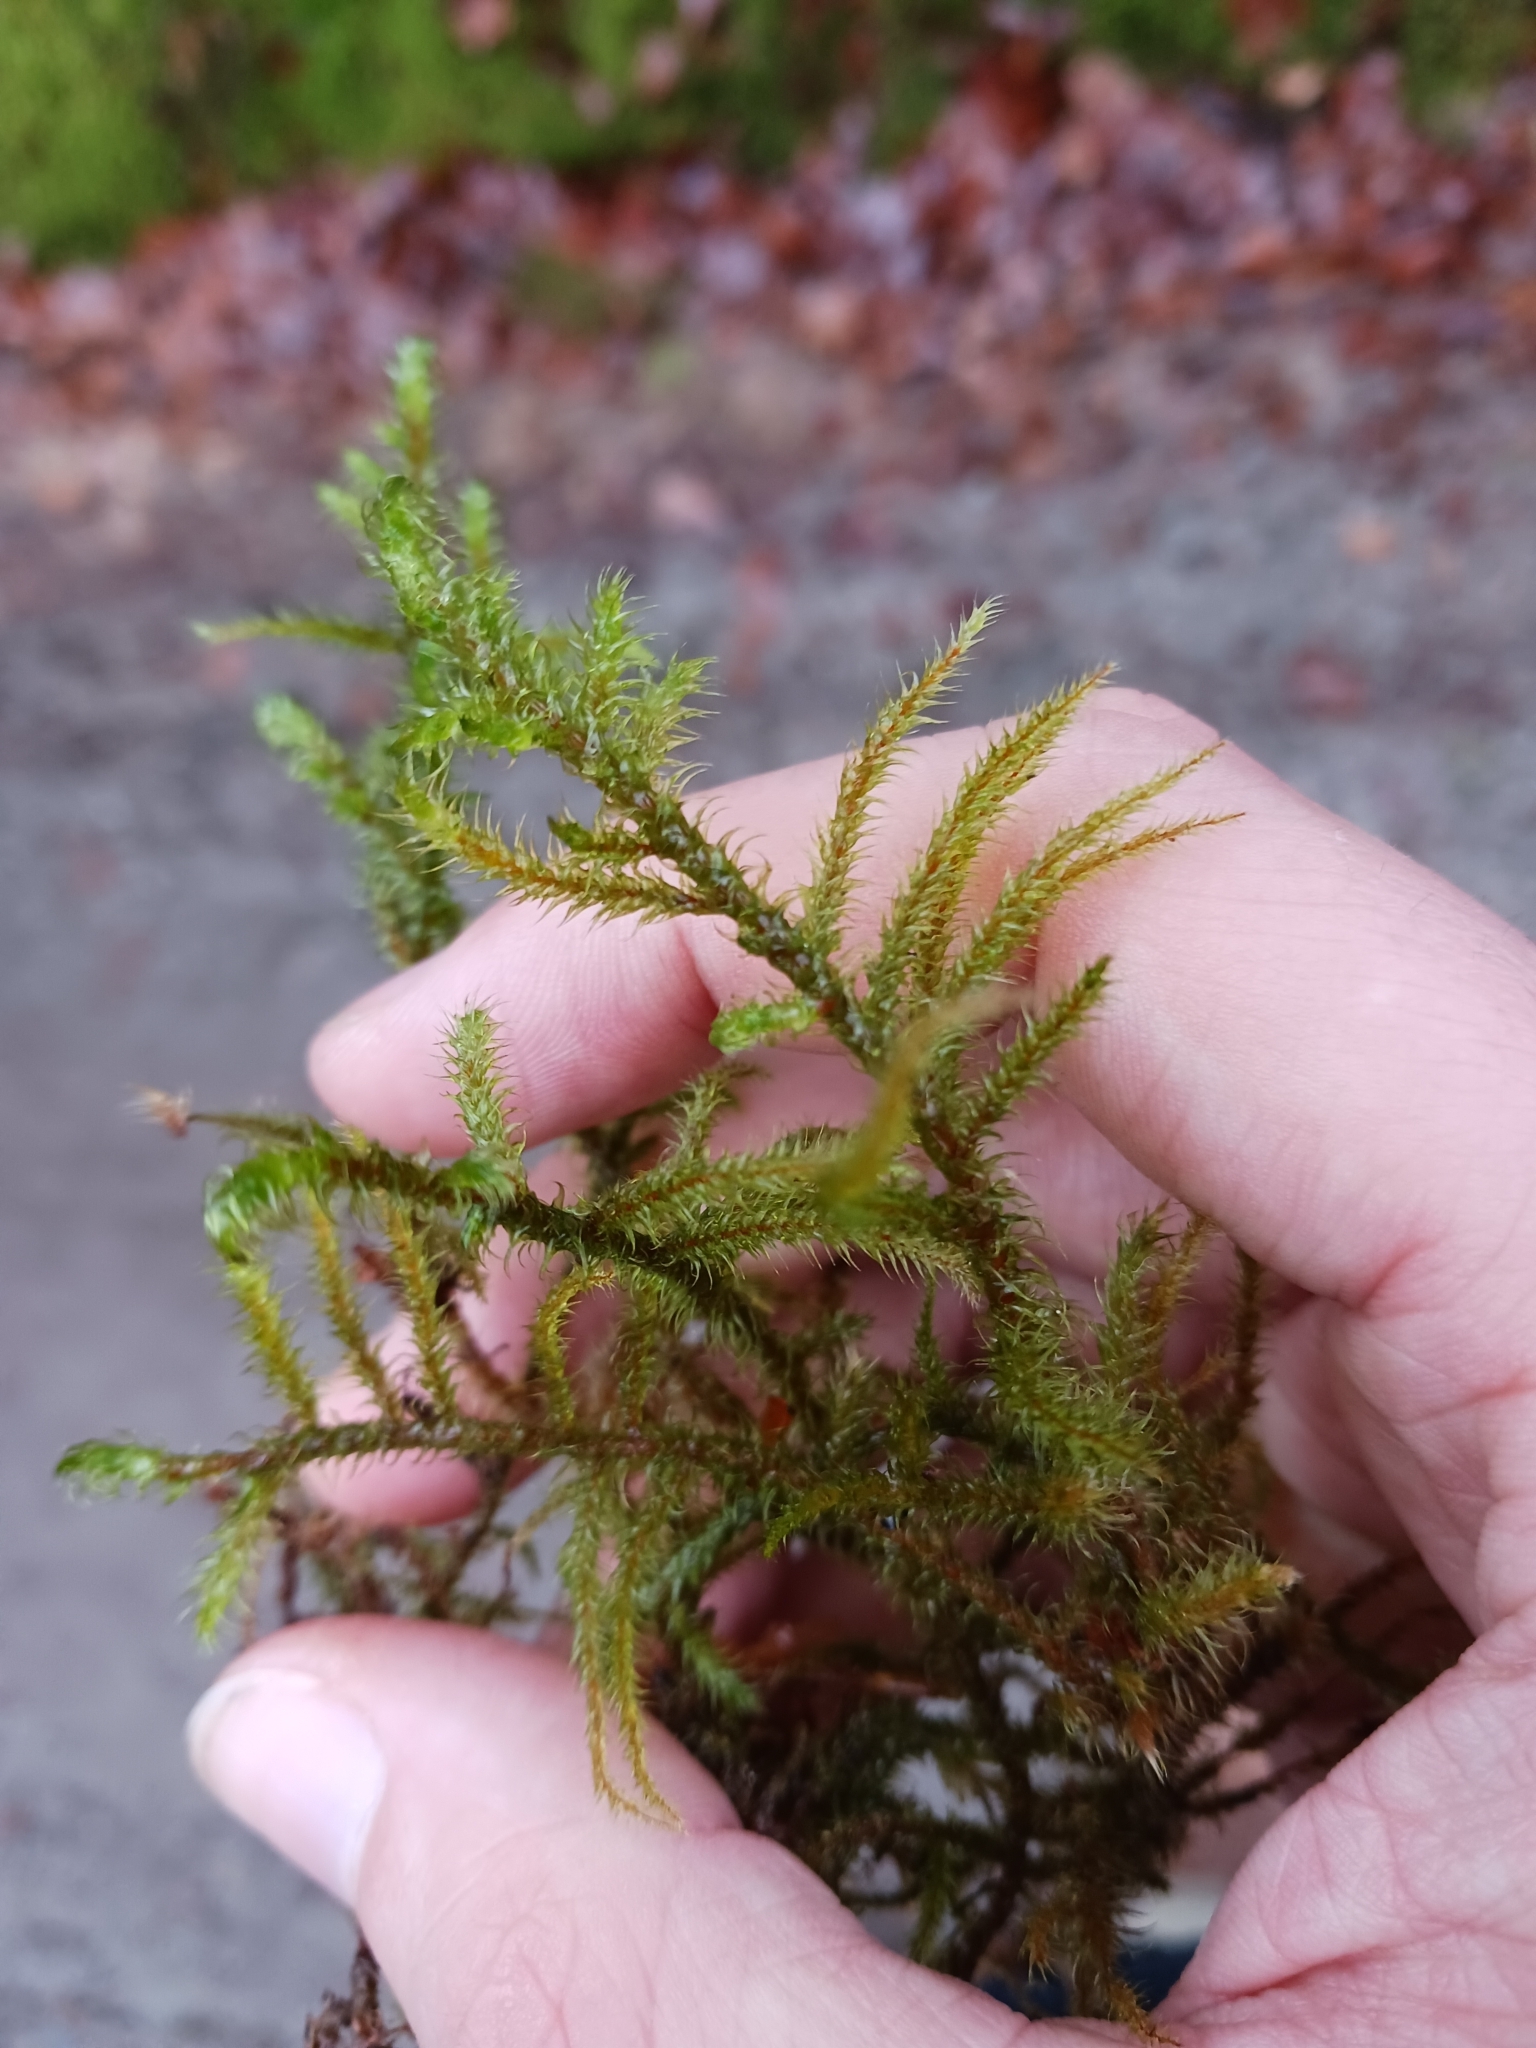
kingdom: Plantae
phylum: Bryophyta
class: Bryopsida
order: Hypnales
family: Hylocomiaceae
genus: Rhytidiadelphus
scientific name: Rhytidiadelphus loreus
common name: Lanky moss
